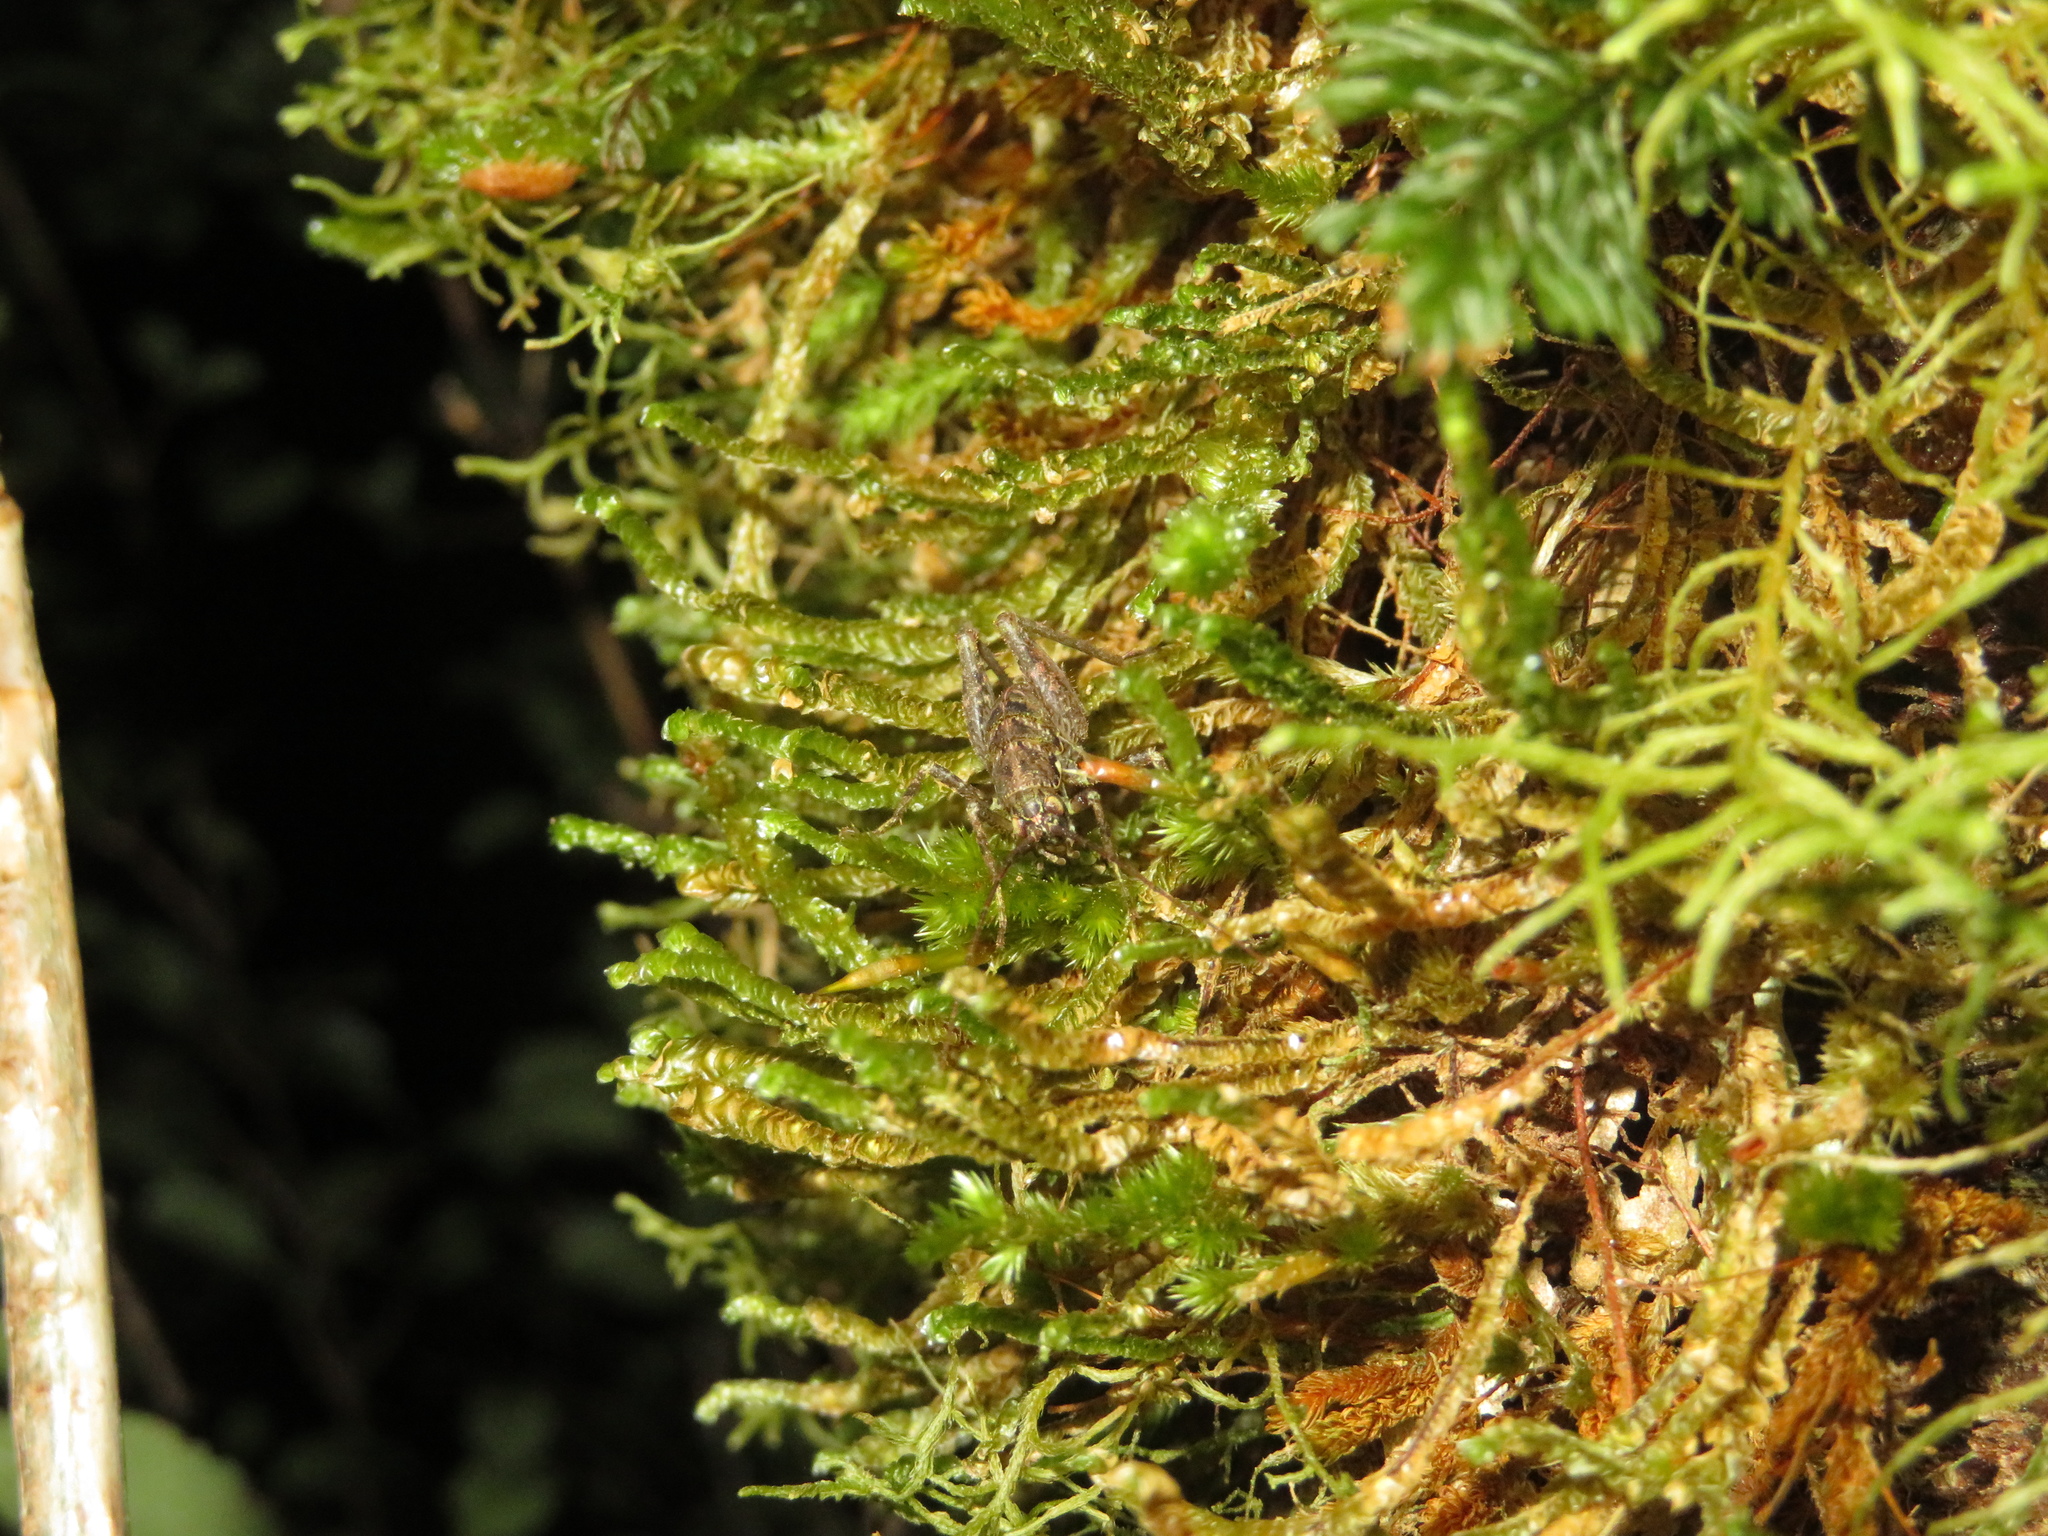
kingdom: Animalia
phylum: Arthropoda
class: Insecta
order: Orthoptera
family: Rhaphidophoridae
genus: Pleioplectron
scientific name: Pleioplectron crystallae
